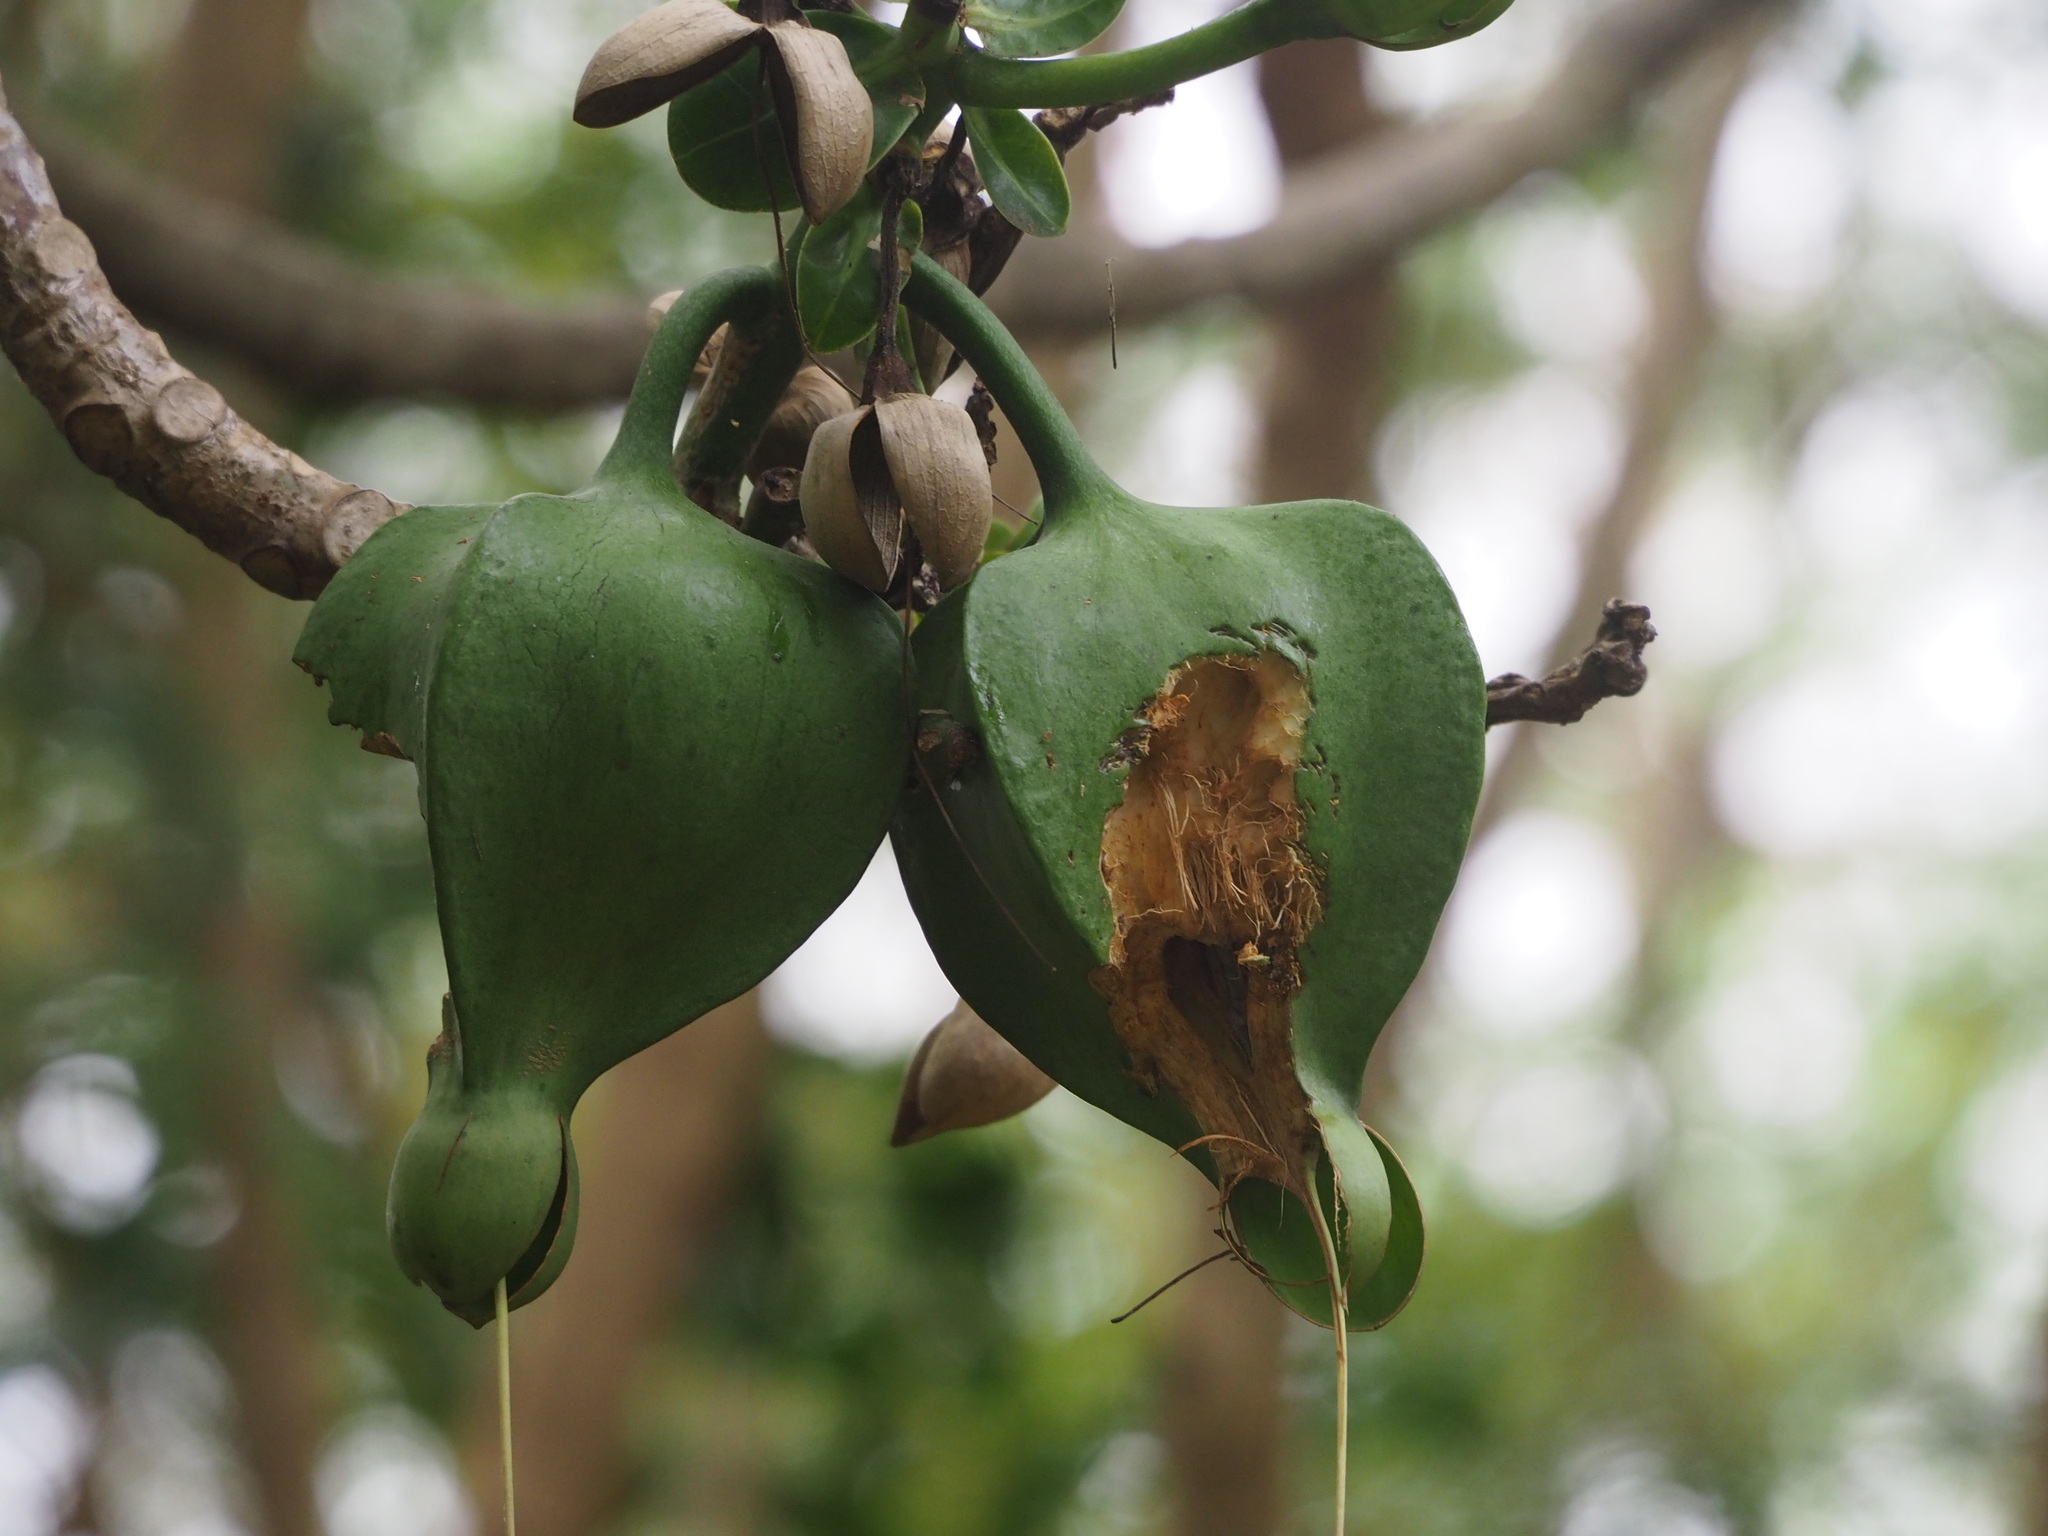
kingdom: Plantae
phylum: Tracheophyta
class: Magnoliopsida
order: Ericales
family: Lecythidaceae
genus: Barringtonia
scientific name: Barringtonia asiatica
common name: Mango-pine
